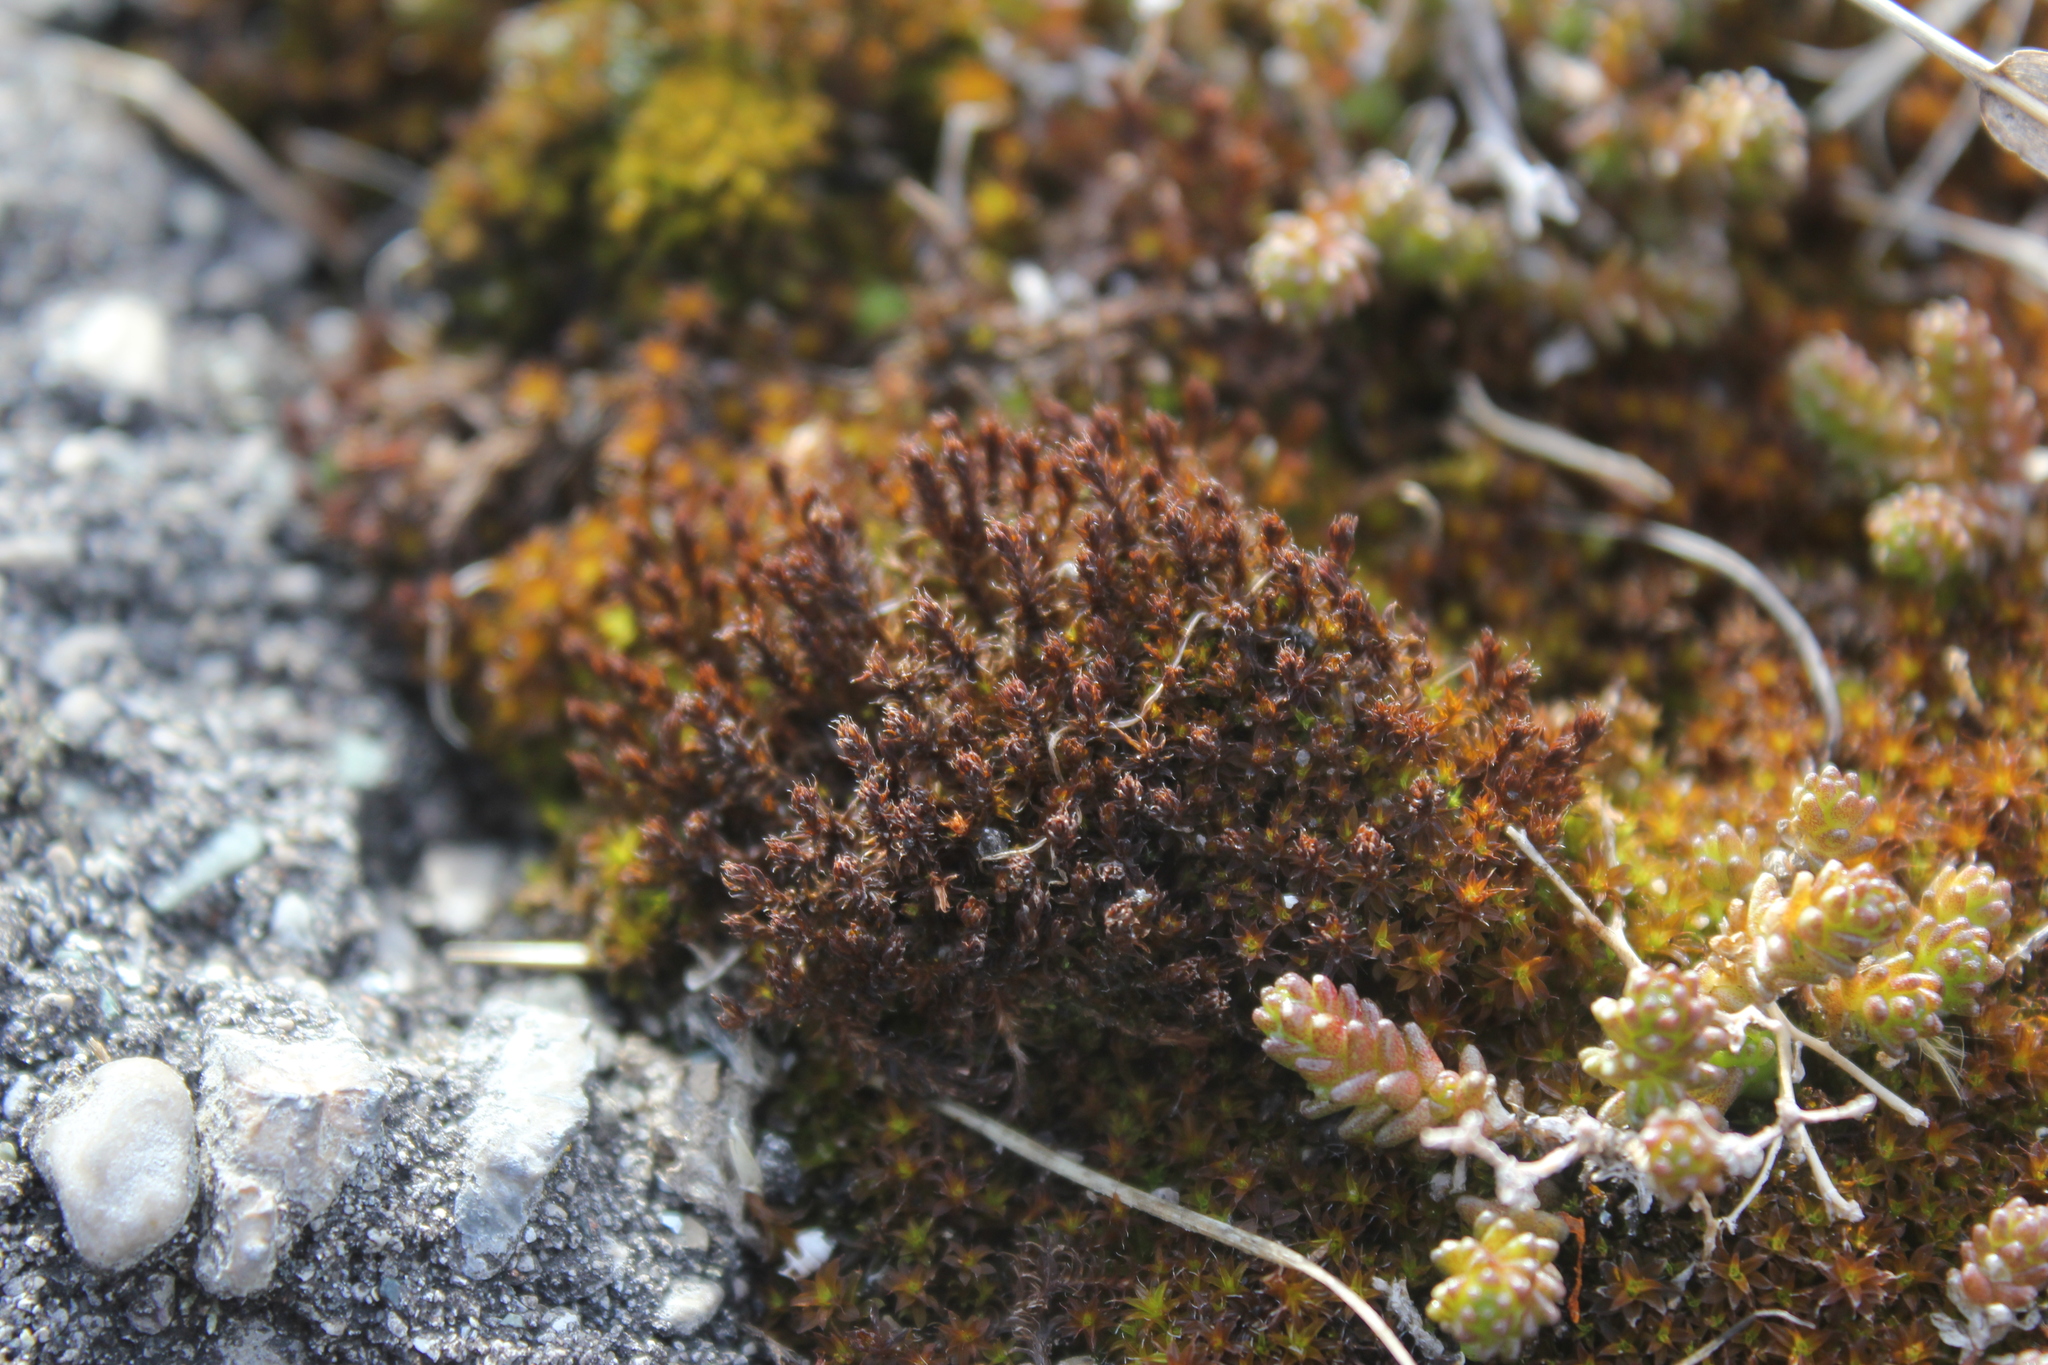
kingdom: Plantae
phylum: Bryophyta
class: Bryopsida
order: Pottiales
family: Pottiaceae
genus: Syntrichia
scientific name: Syntrichia ruralis
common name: Sidewalk screw moss
